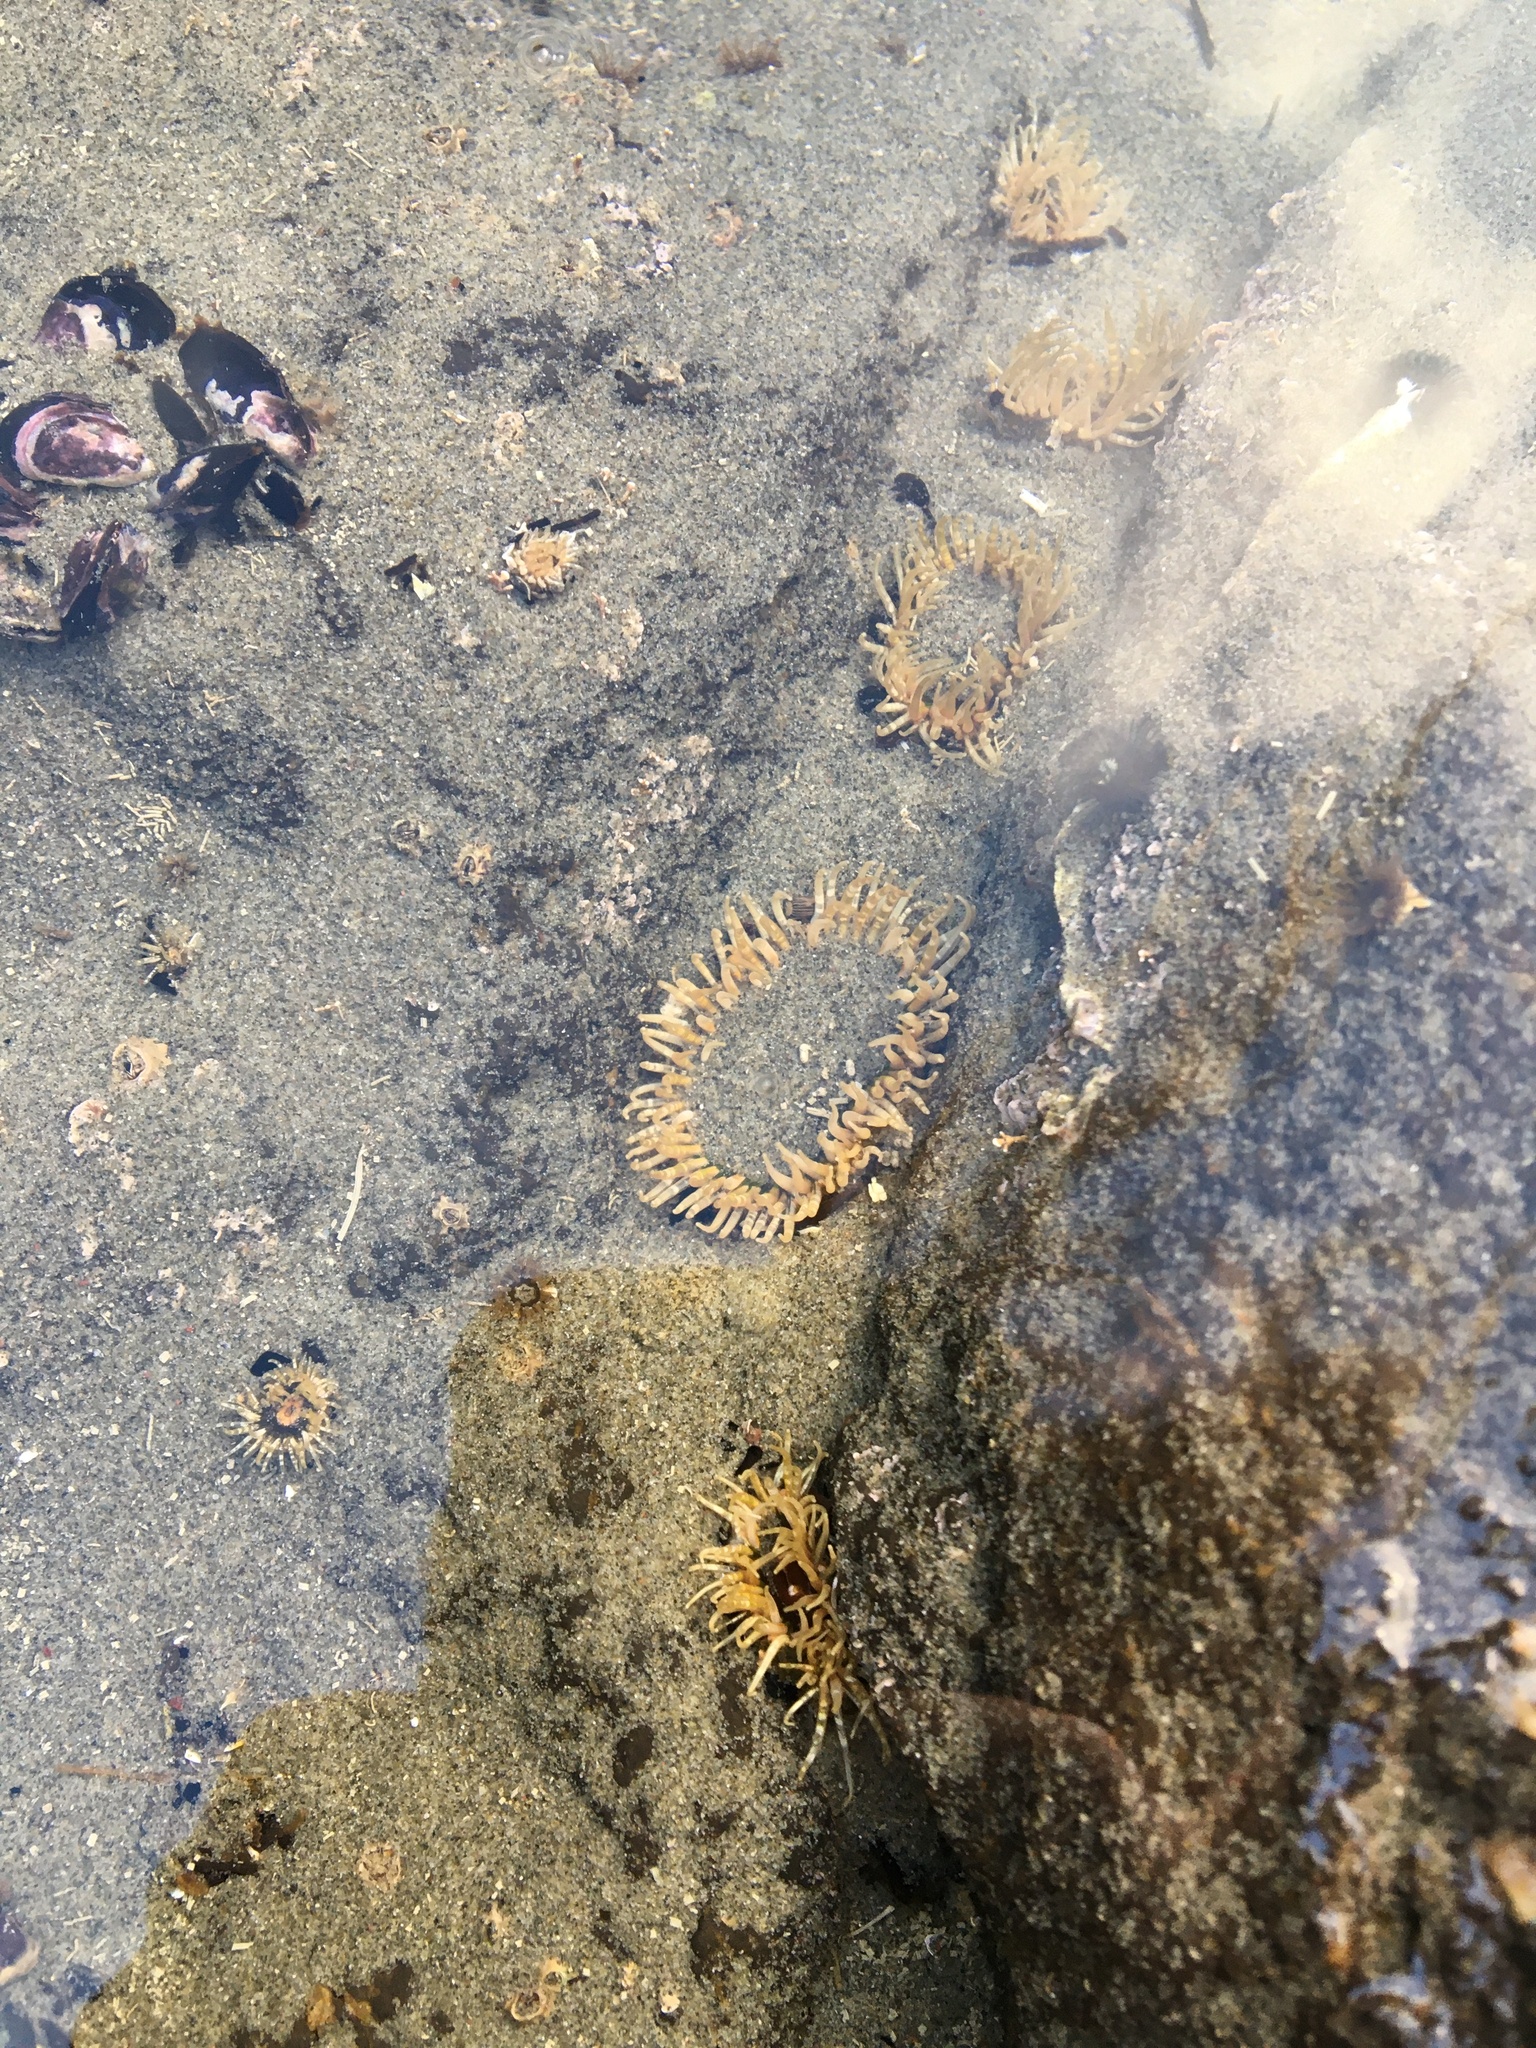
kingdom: Animalia
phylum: Cnidaria
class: Anthozoa
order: Actiniaria
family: Actiniidae
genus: Oulactis
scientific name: Oulactis muscosa
